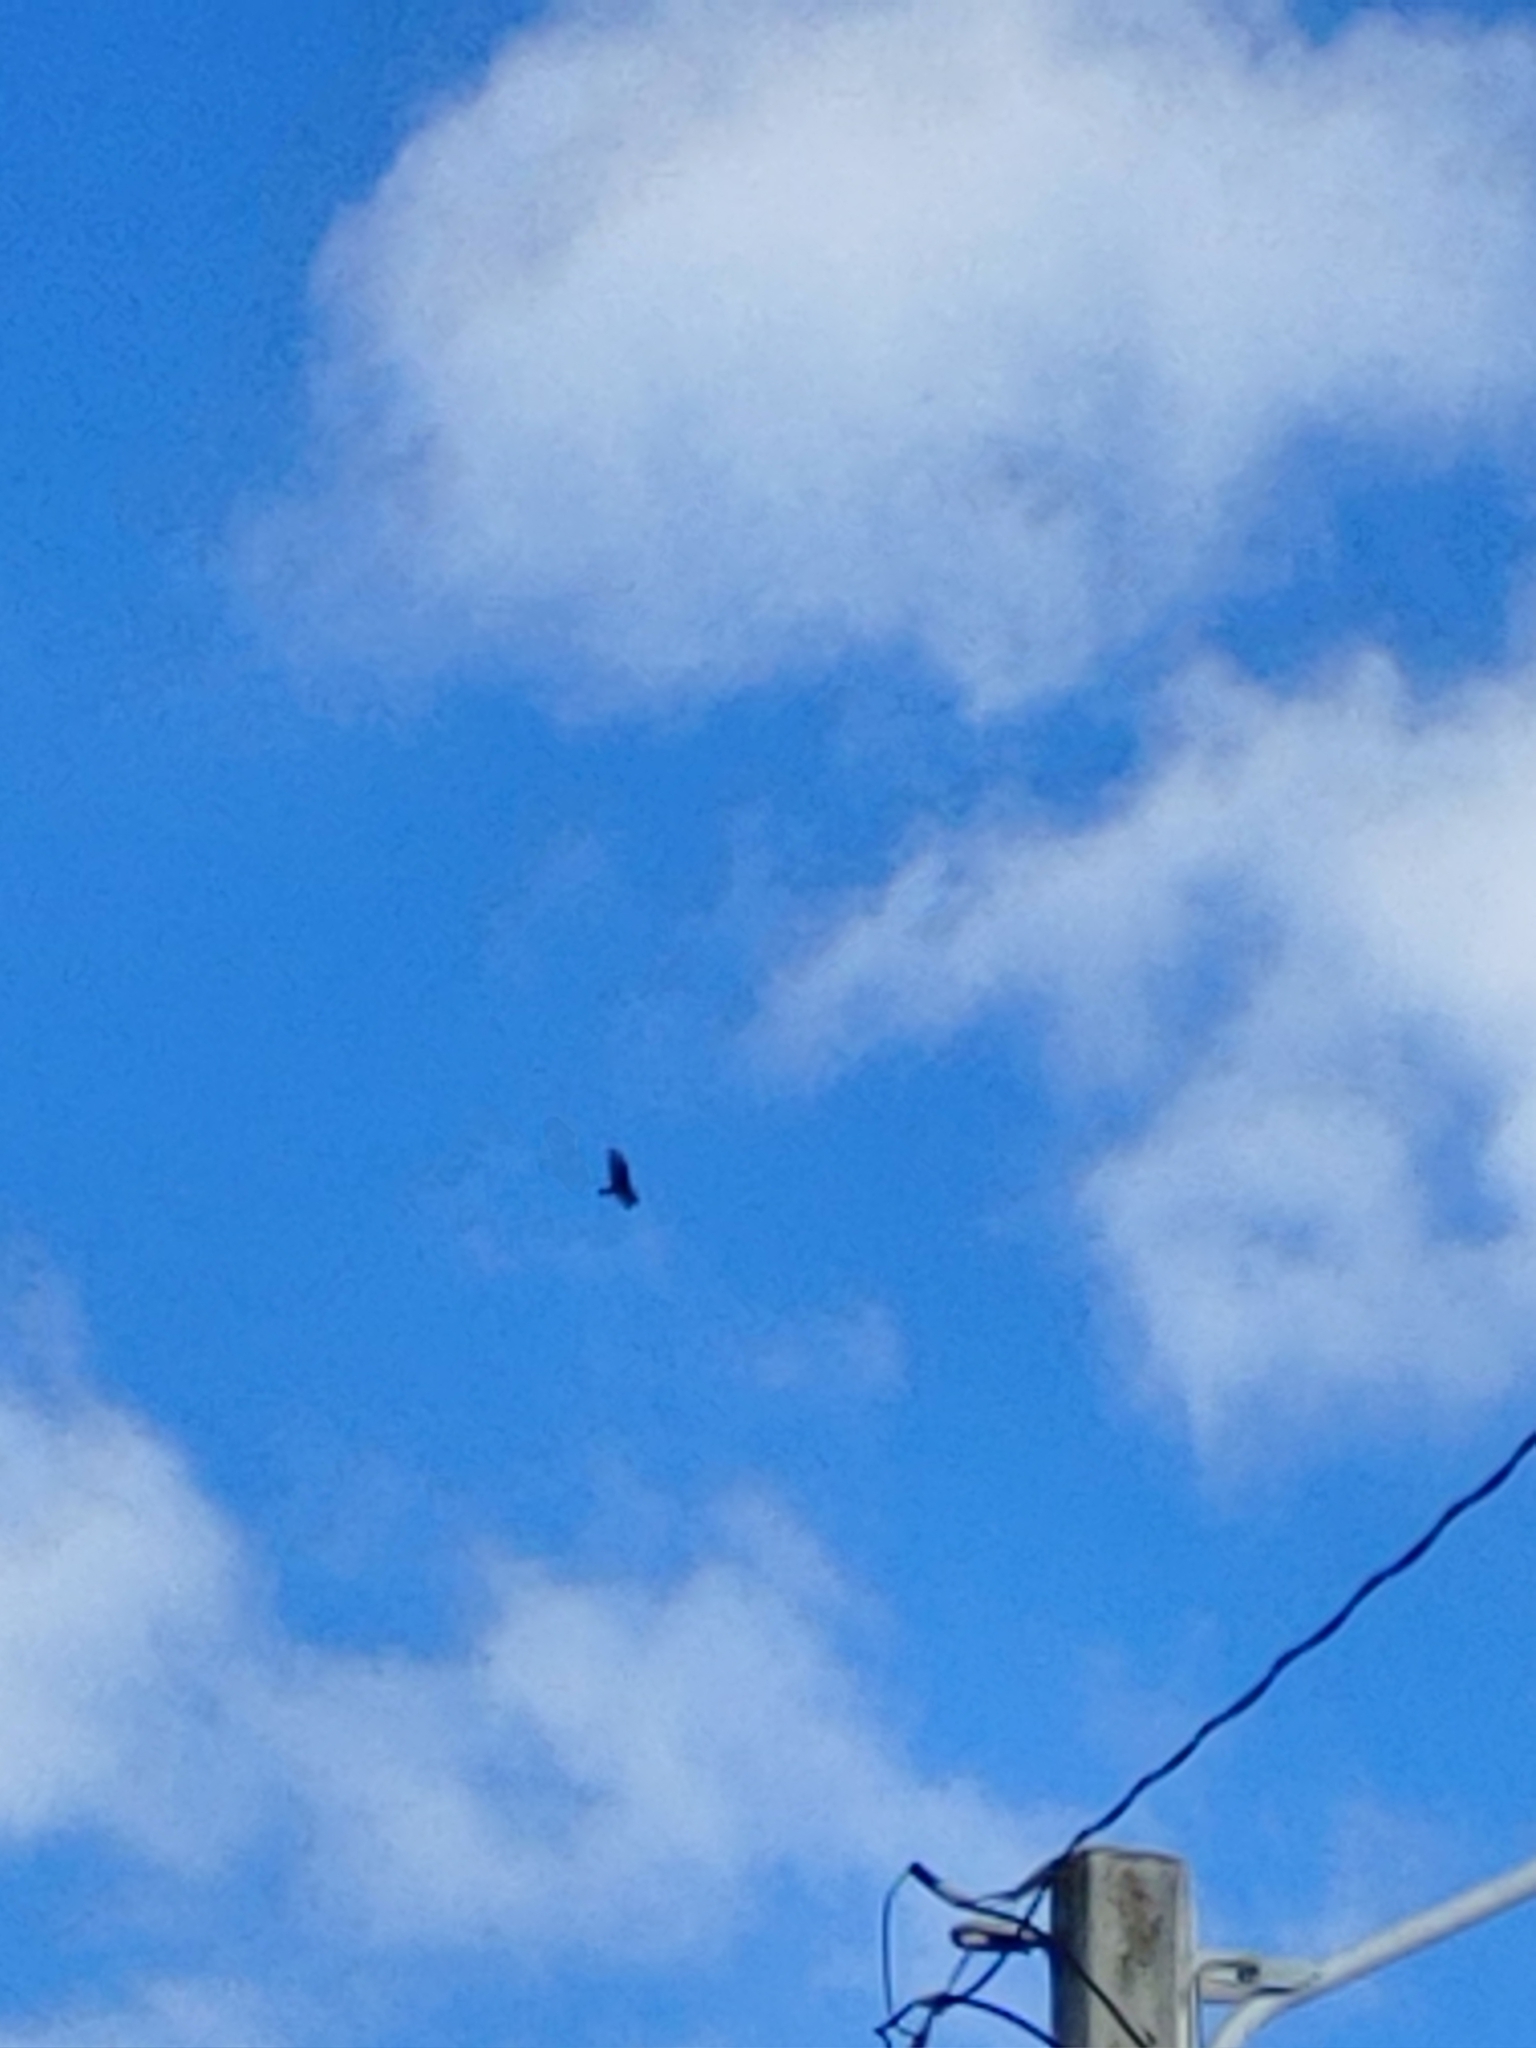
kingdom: Animalia
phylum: Chordata
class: Aves
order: Accipitriformes
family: Cathartidae
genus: Cathartes
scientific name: Cathartes aura
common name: Turkey vulture
